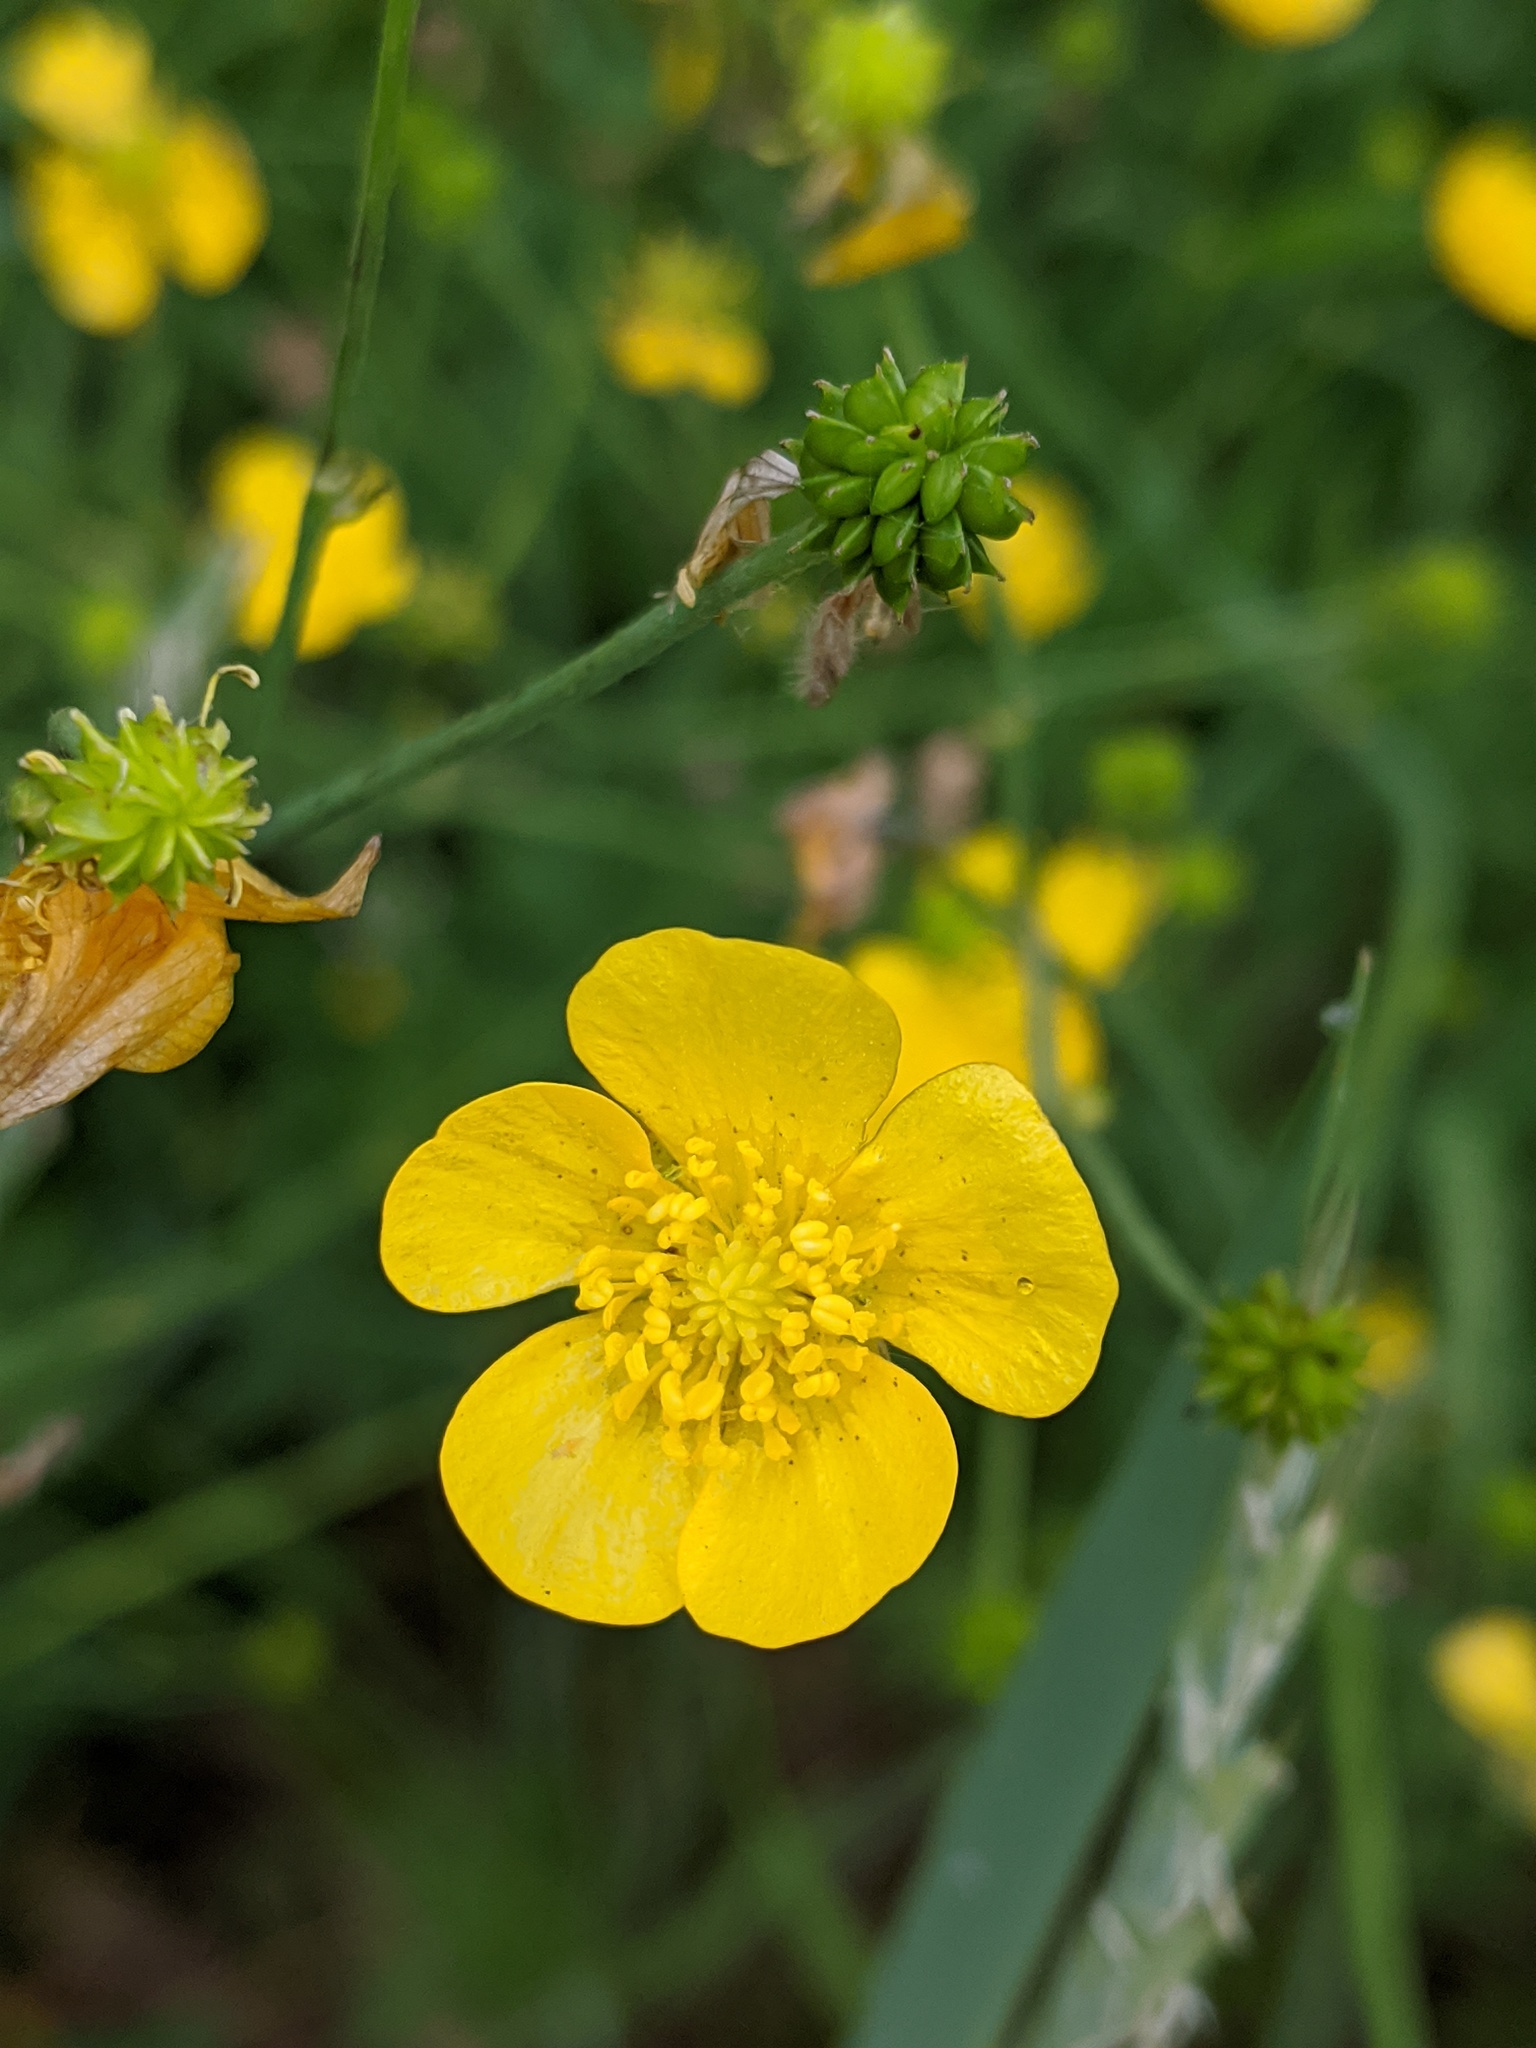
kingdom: Plantae
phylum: Tracheophyta
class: Magnoliopsida
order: Ranunculales
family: Ranunculaceae
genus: Ranunculus
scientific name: Ranunculus acris
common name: Meadow buttercup
